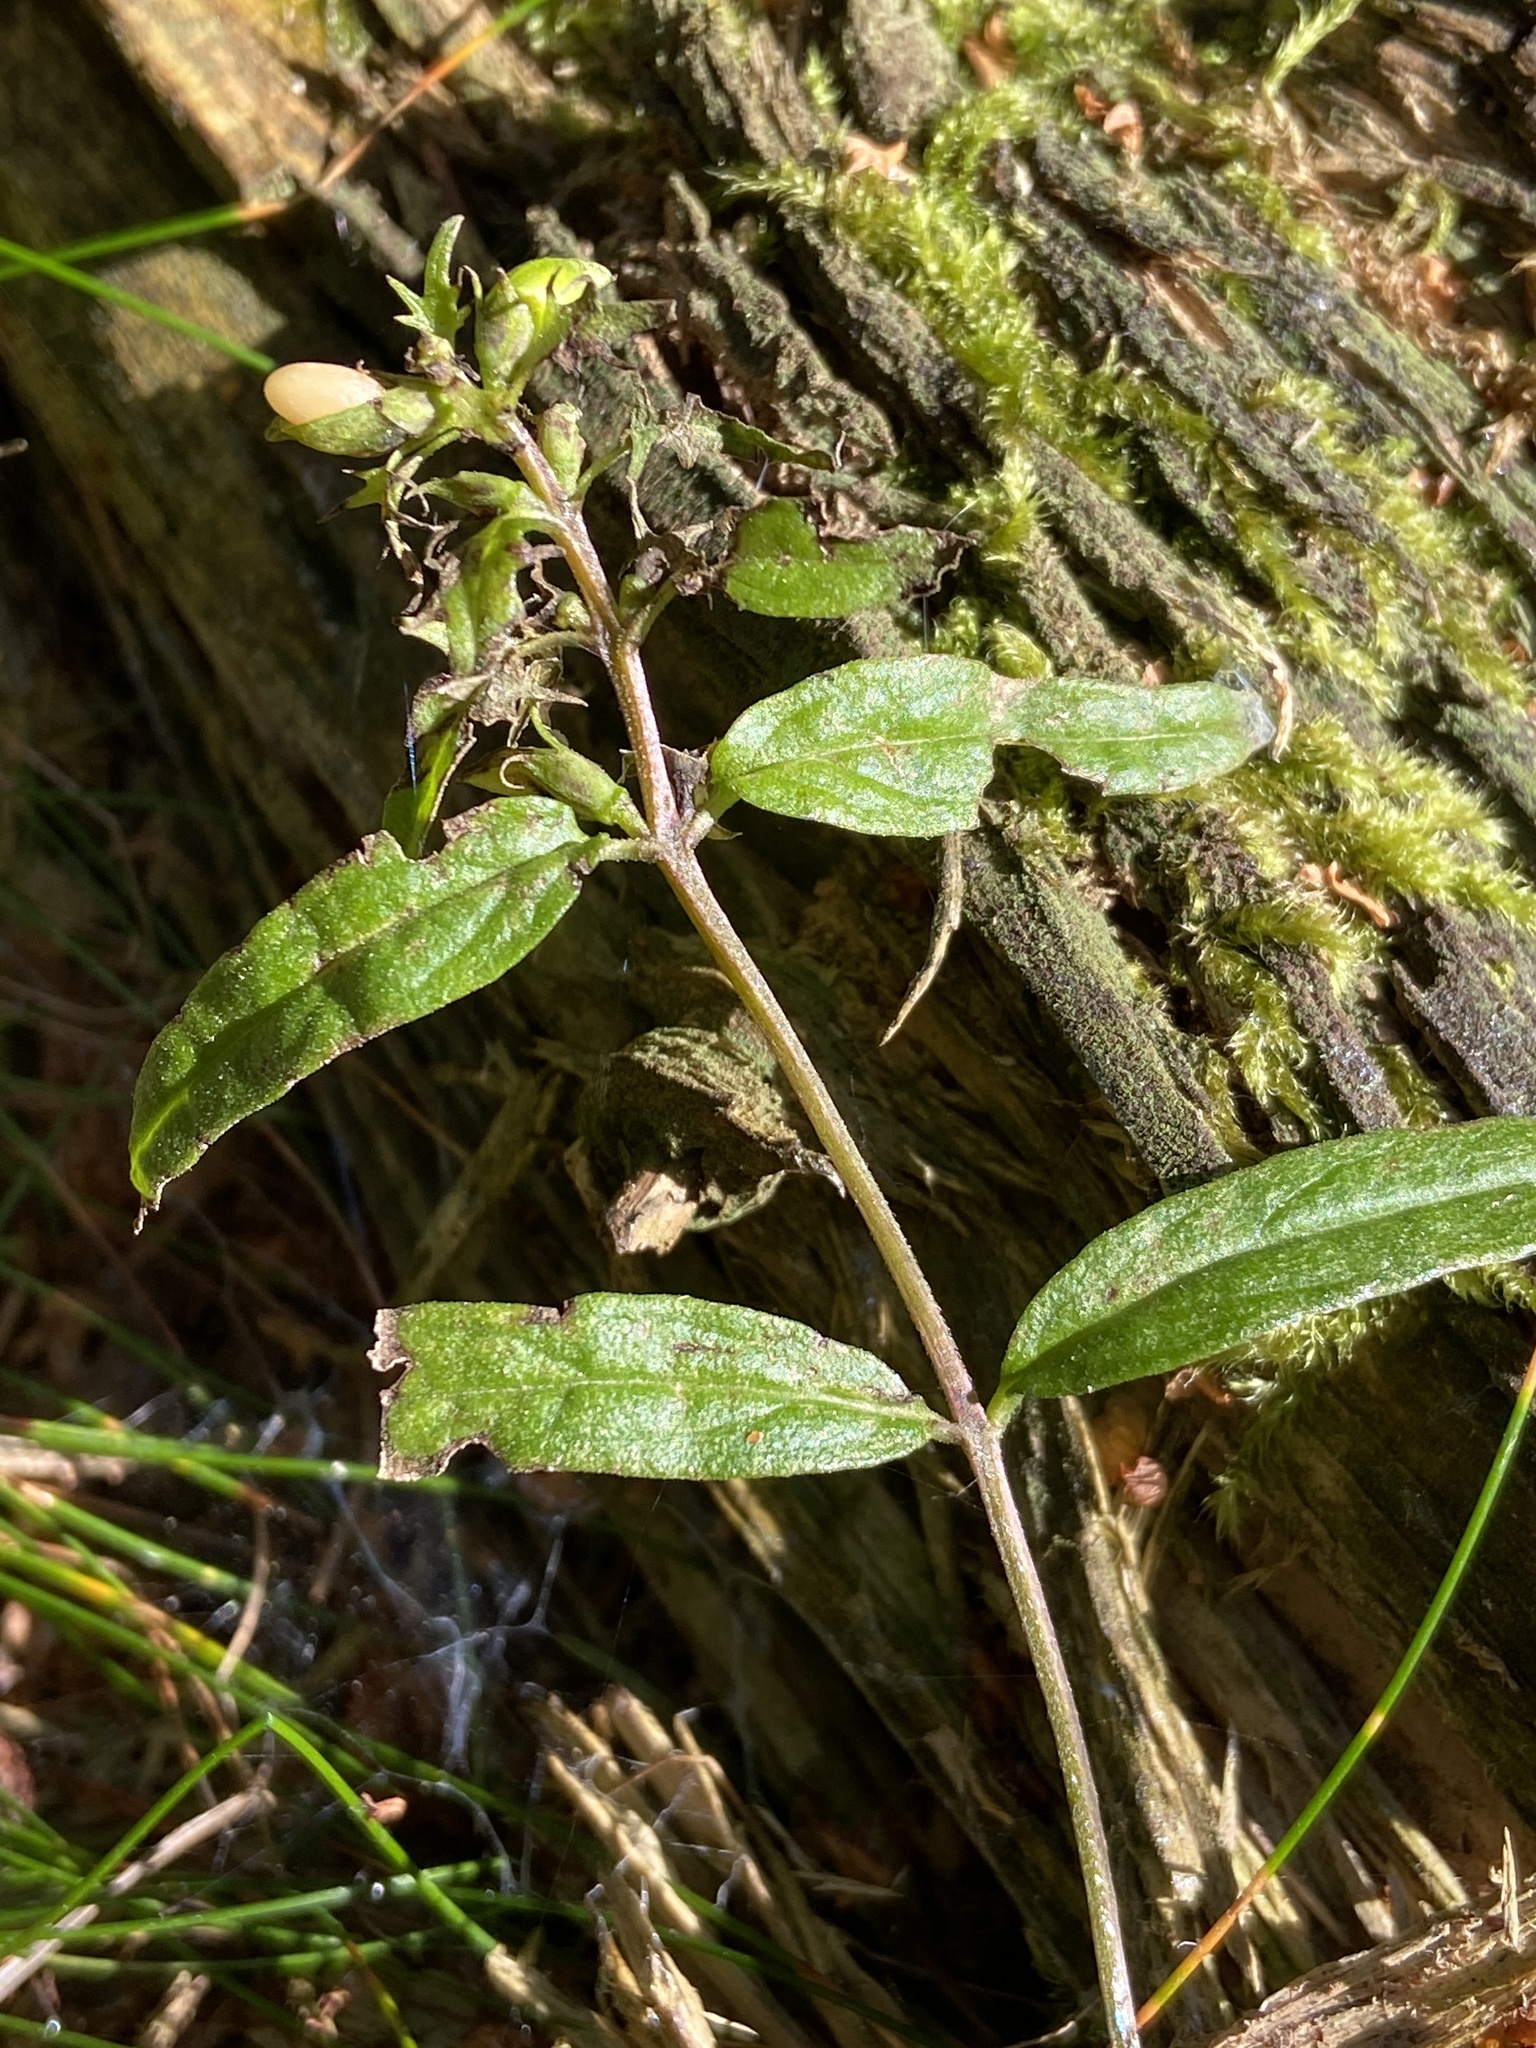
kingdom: Plantae
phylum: Tracheophyta
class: Magnoliopsida
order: Lamiales
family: Orobanchaceae
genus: Melampyrum
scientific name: Melampyrum pratense
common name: Common cow-wheat
